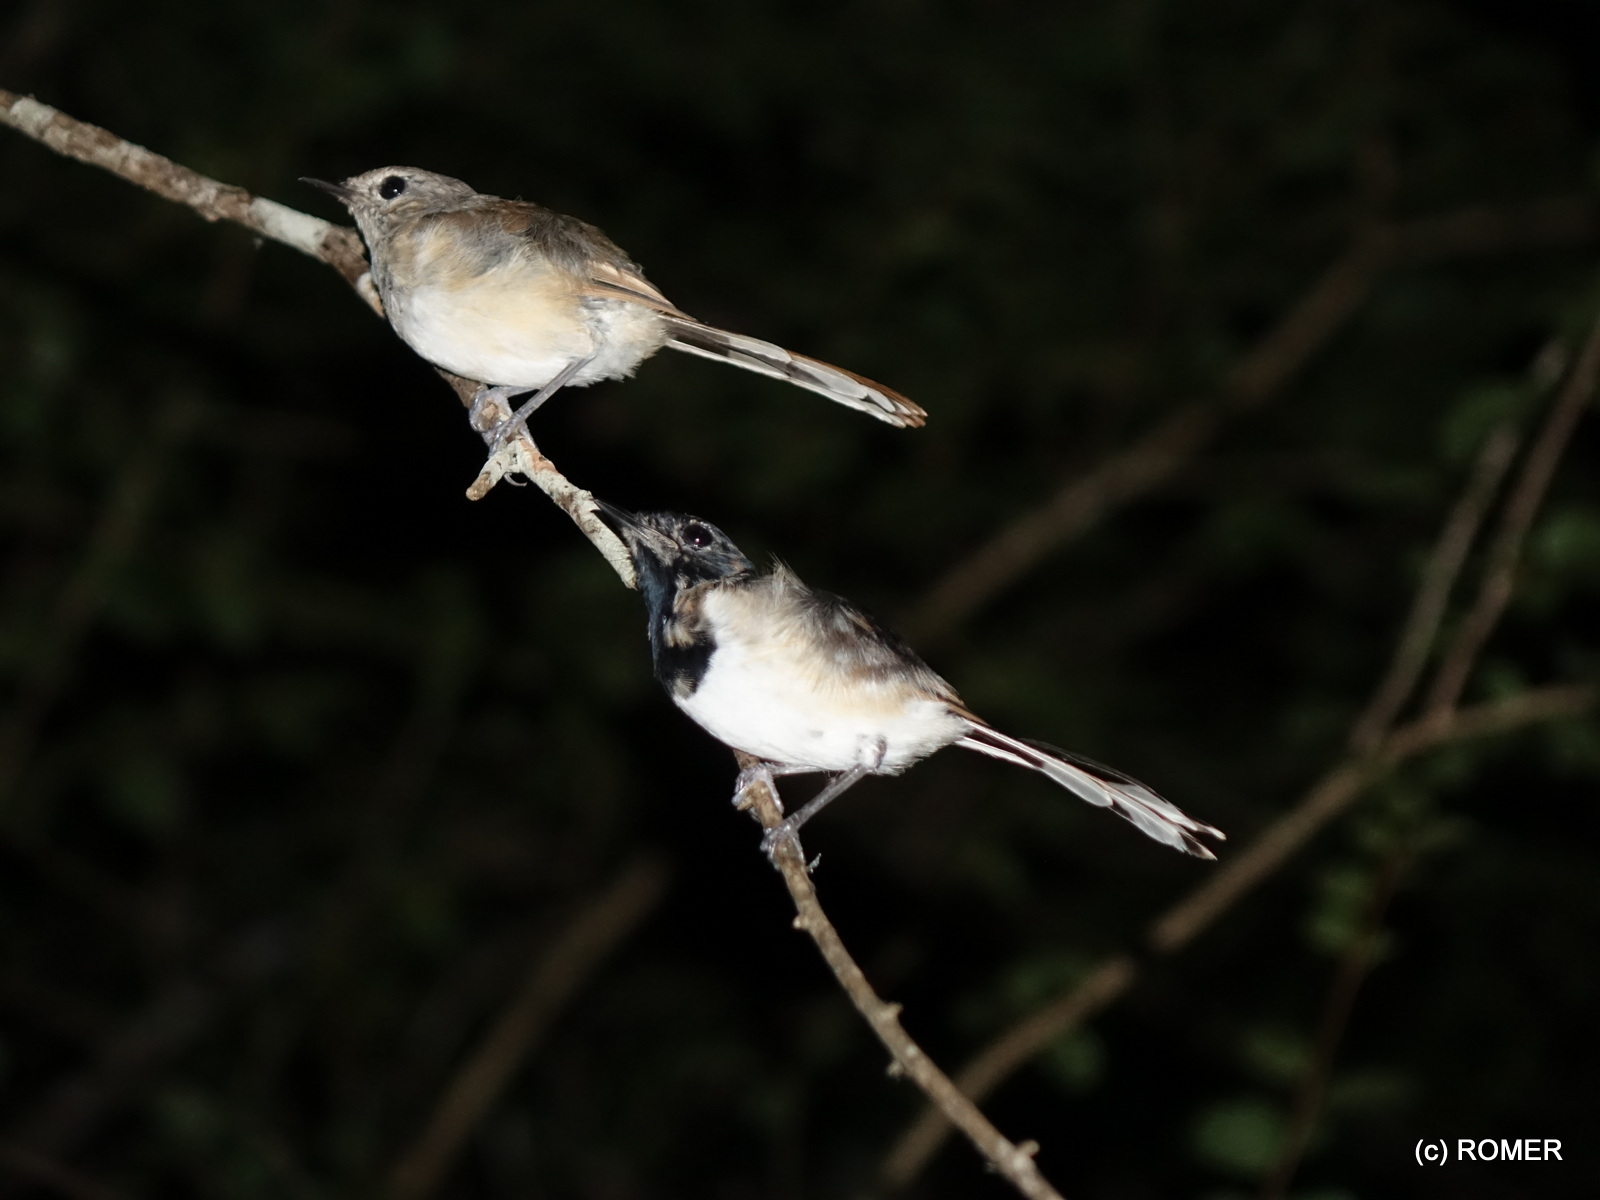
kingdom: Animalia
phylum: Chordata
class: Aves
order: Passeriformes
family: Muscicapidae
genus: Copsychus
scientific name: Copsychus albospecularis
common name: Madagascar magpie-robin
